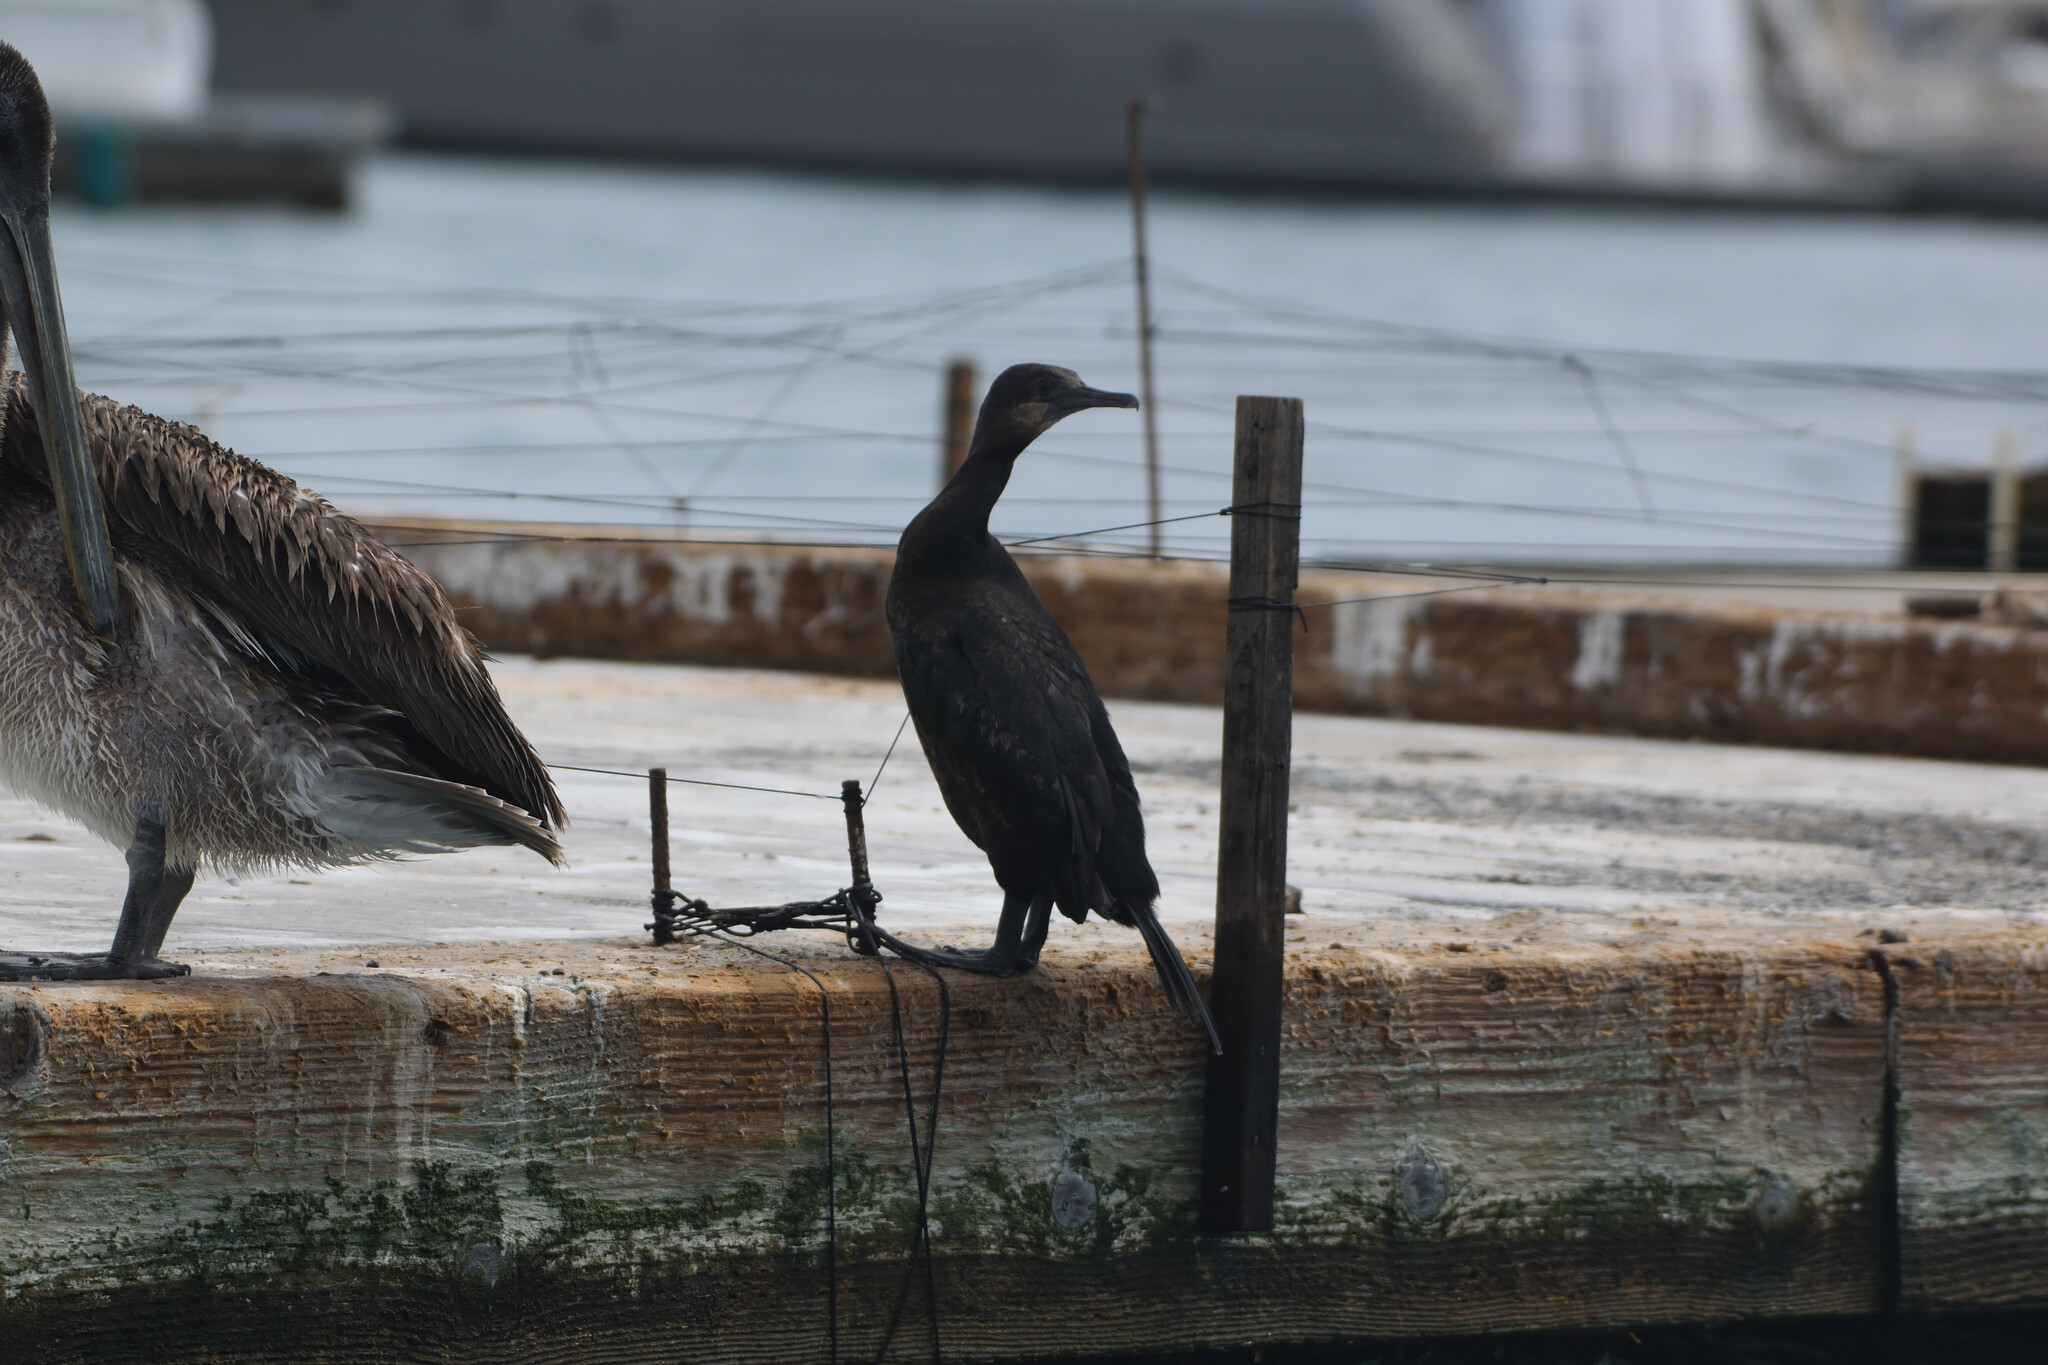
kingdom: Animalia
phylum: Chordata
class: Aves
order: Suliformes
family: Phalacrocoracidae
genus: Urile
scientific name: Urile penicillatus
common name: Brandt's cormorant
